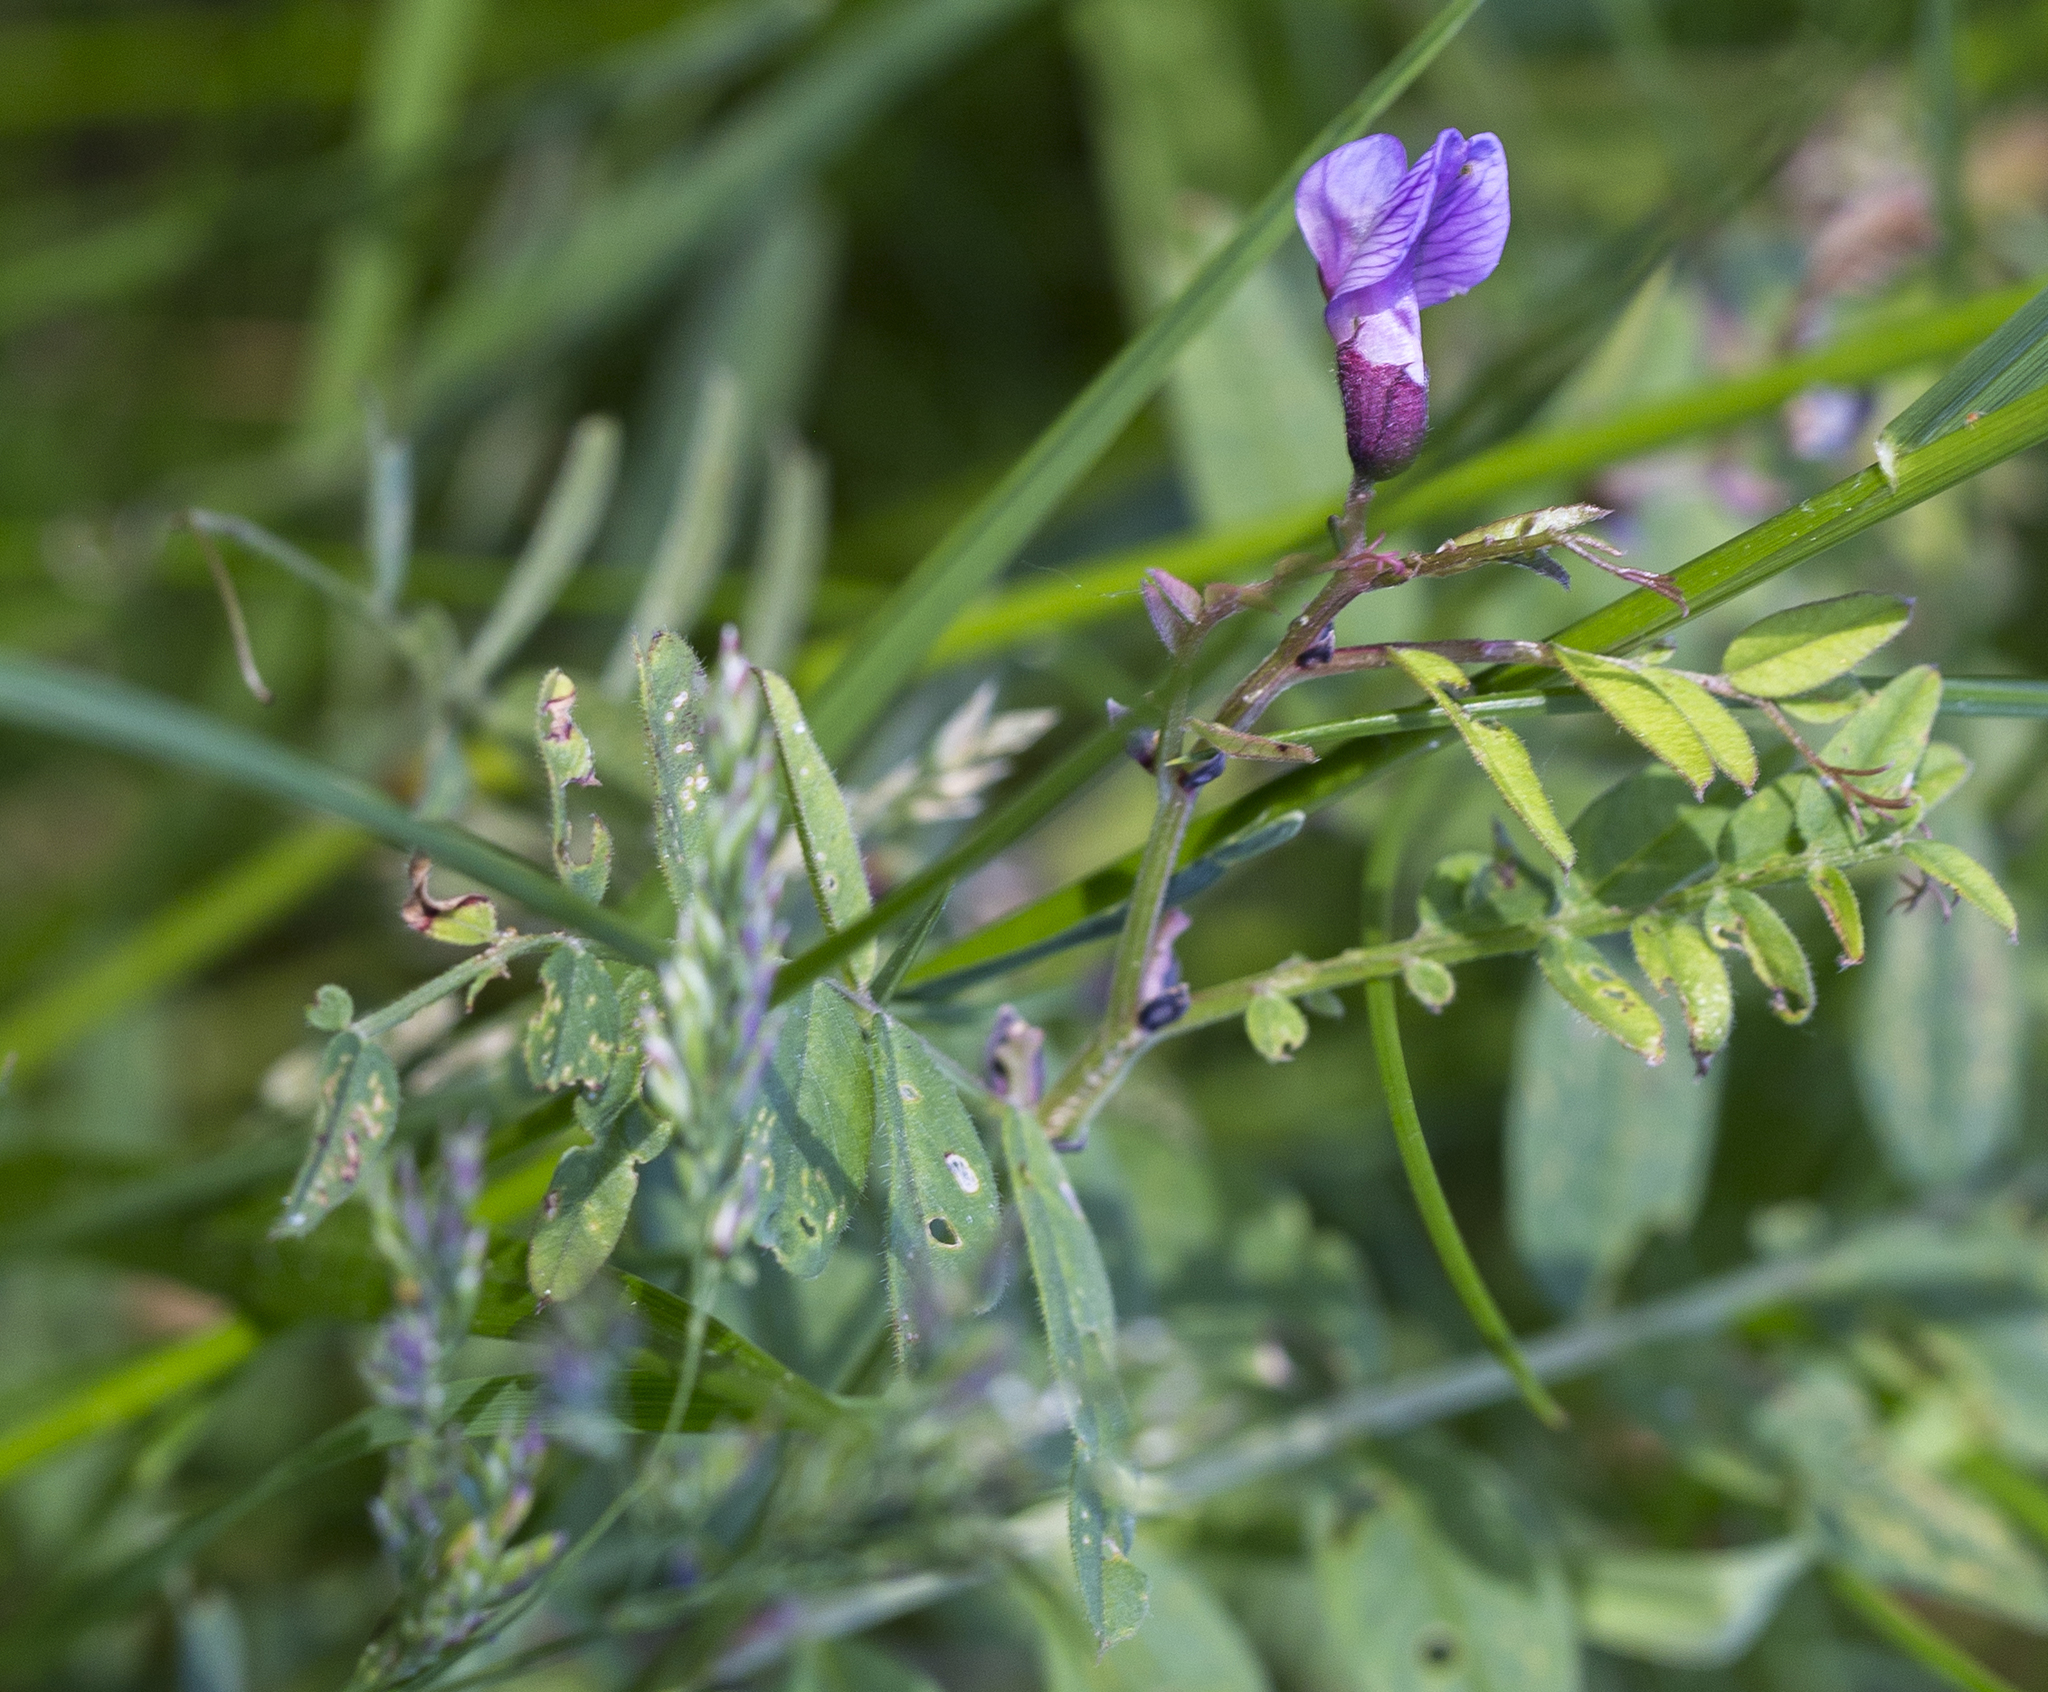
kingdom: Plantae
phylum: Tracheophyta
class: Magnoliopsida
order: Fabales
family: Fabaceae
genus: Vicia
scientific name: Vicia sepium
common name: Bush vetch
